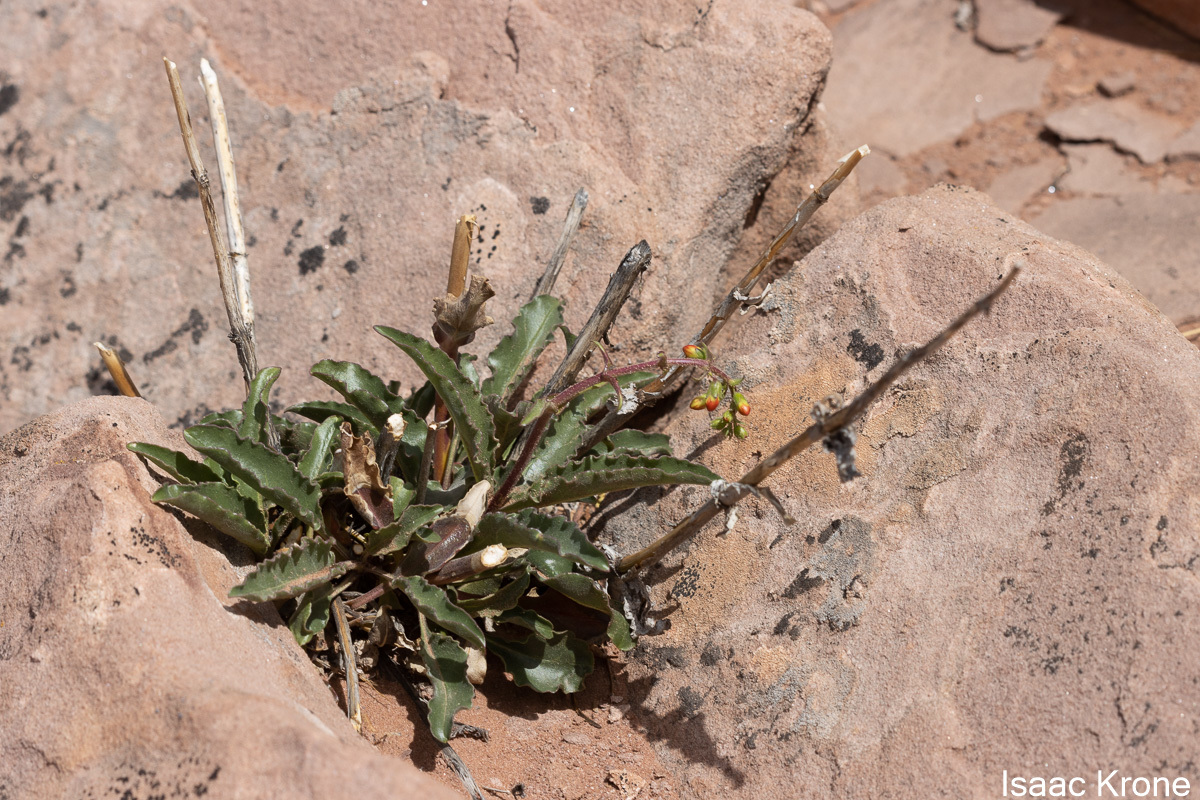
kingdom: Plantae
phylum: Tracheophyta
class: Magnoliopsida
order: Lamiales
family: Plantaginaceae
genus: Penstemon
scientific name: Penstemon eatonii
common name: Eaton's penstemon
